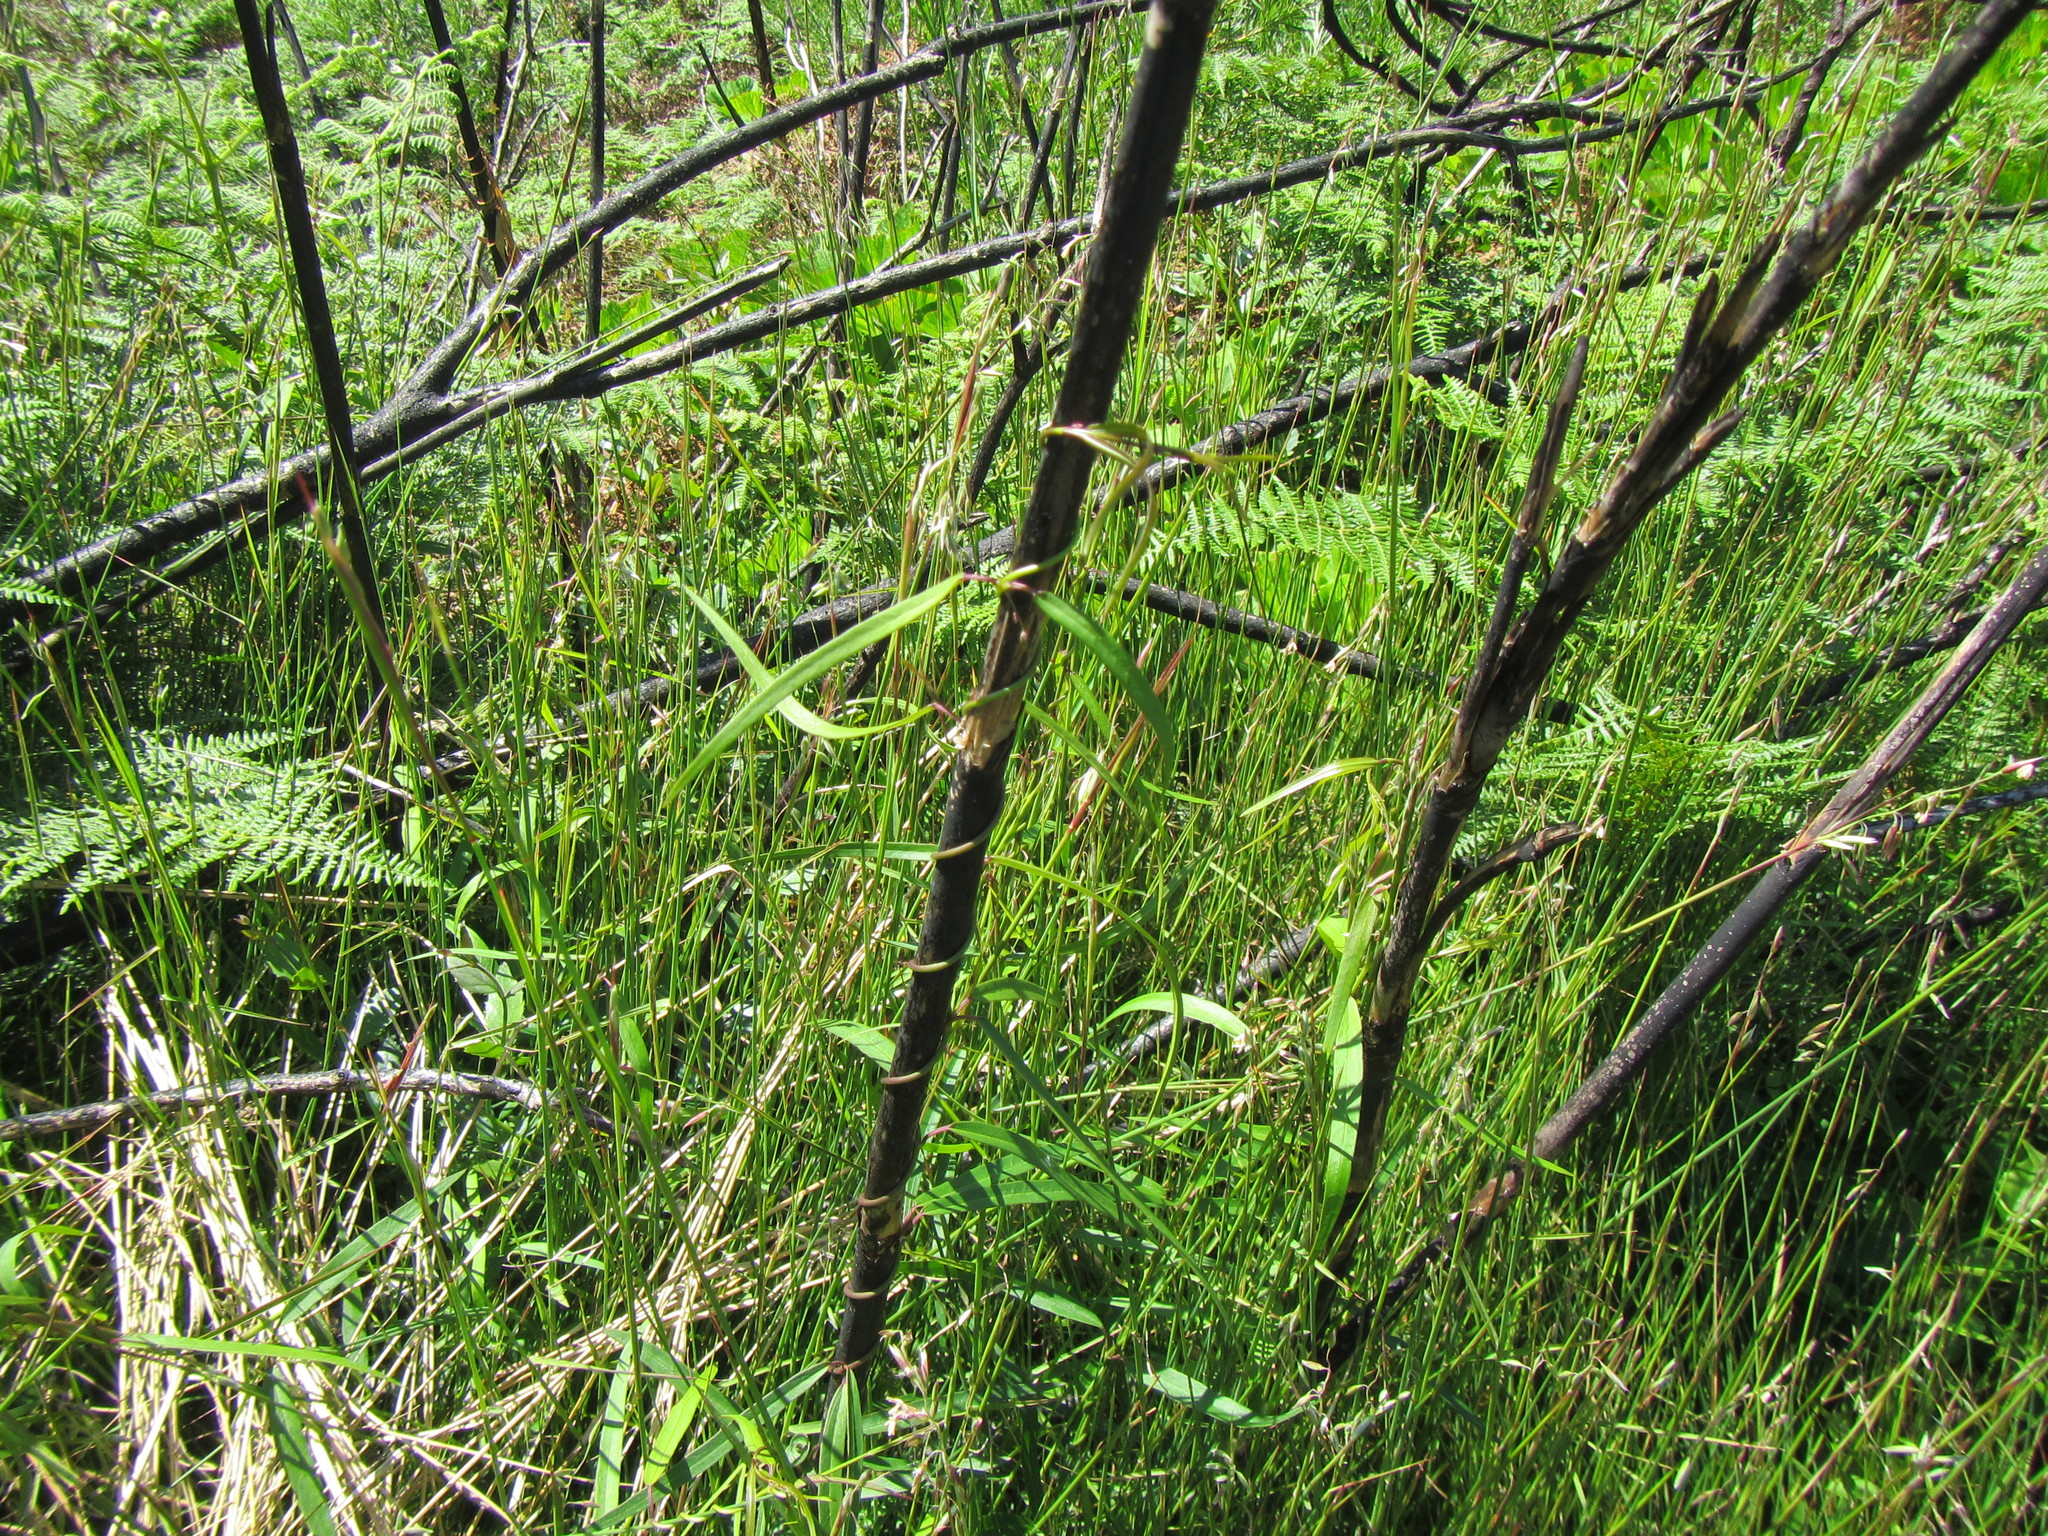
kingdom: Plantae
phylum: Tracheophyta
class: Magnoliopsida
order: Gentianales
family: Apocynaceae
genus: Oncinema
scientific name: Oncinema lineare
